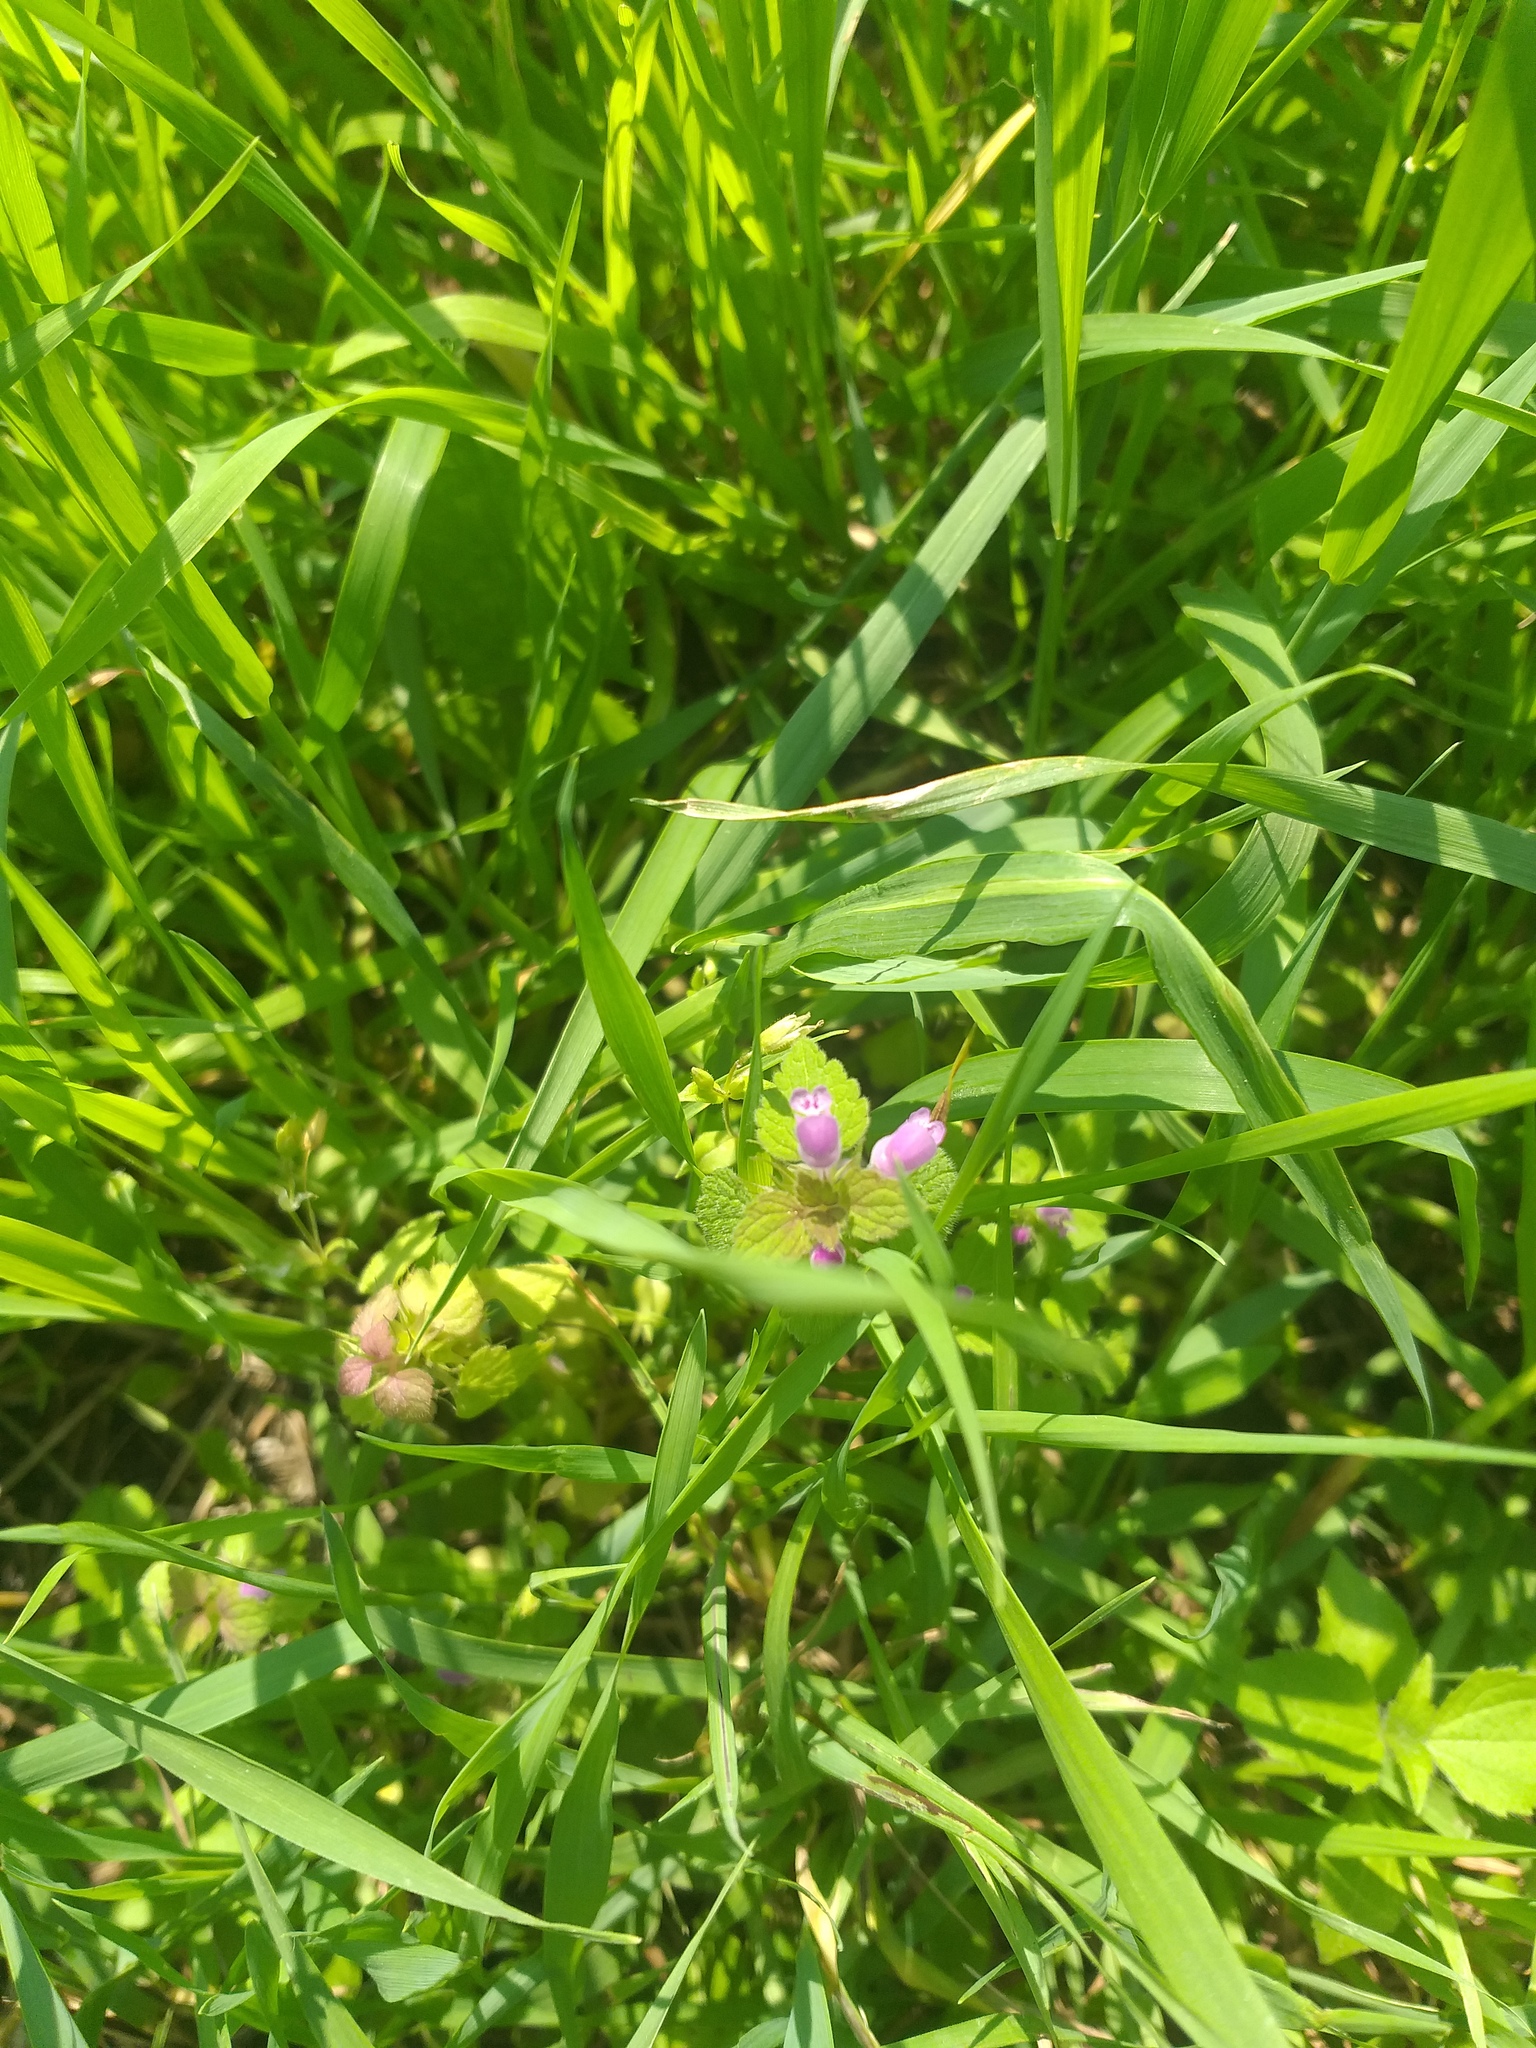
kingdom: Plantae
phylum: Tracheophyta
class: Magnoliopsida
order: Lamiales
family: Lamiaceae
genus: Lamium
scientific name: Lamium purpureum
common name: Red dead-nettle
